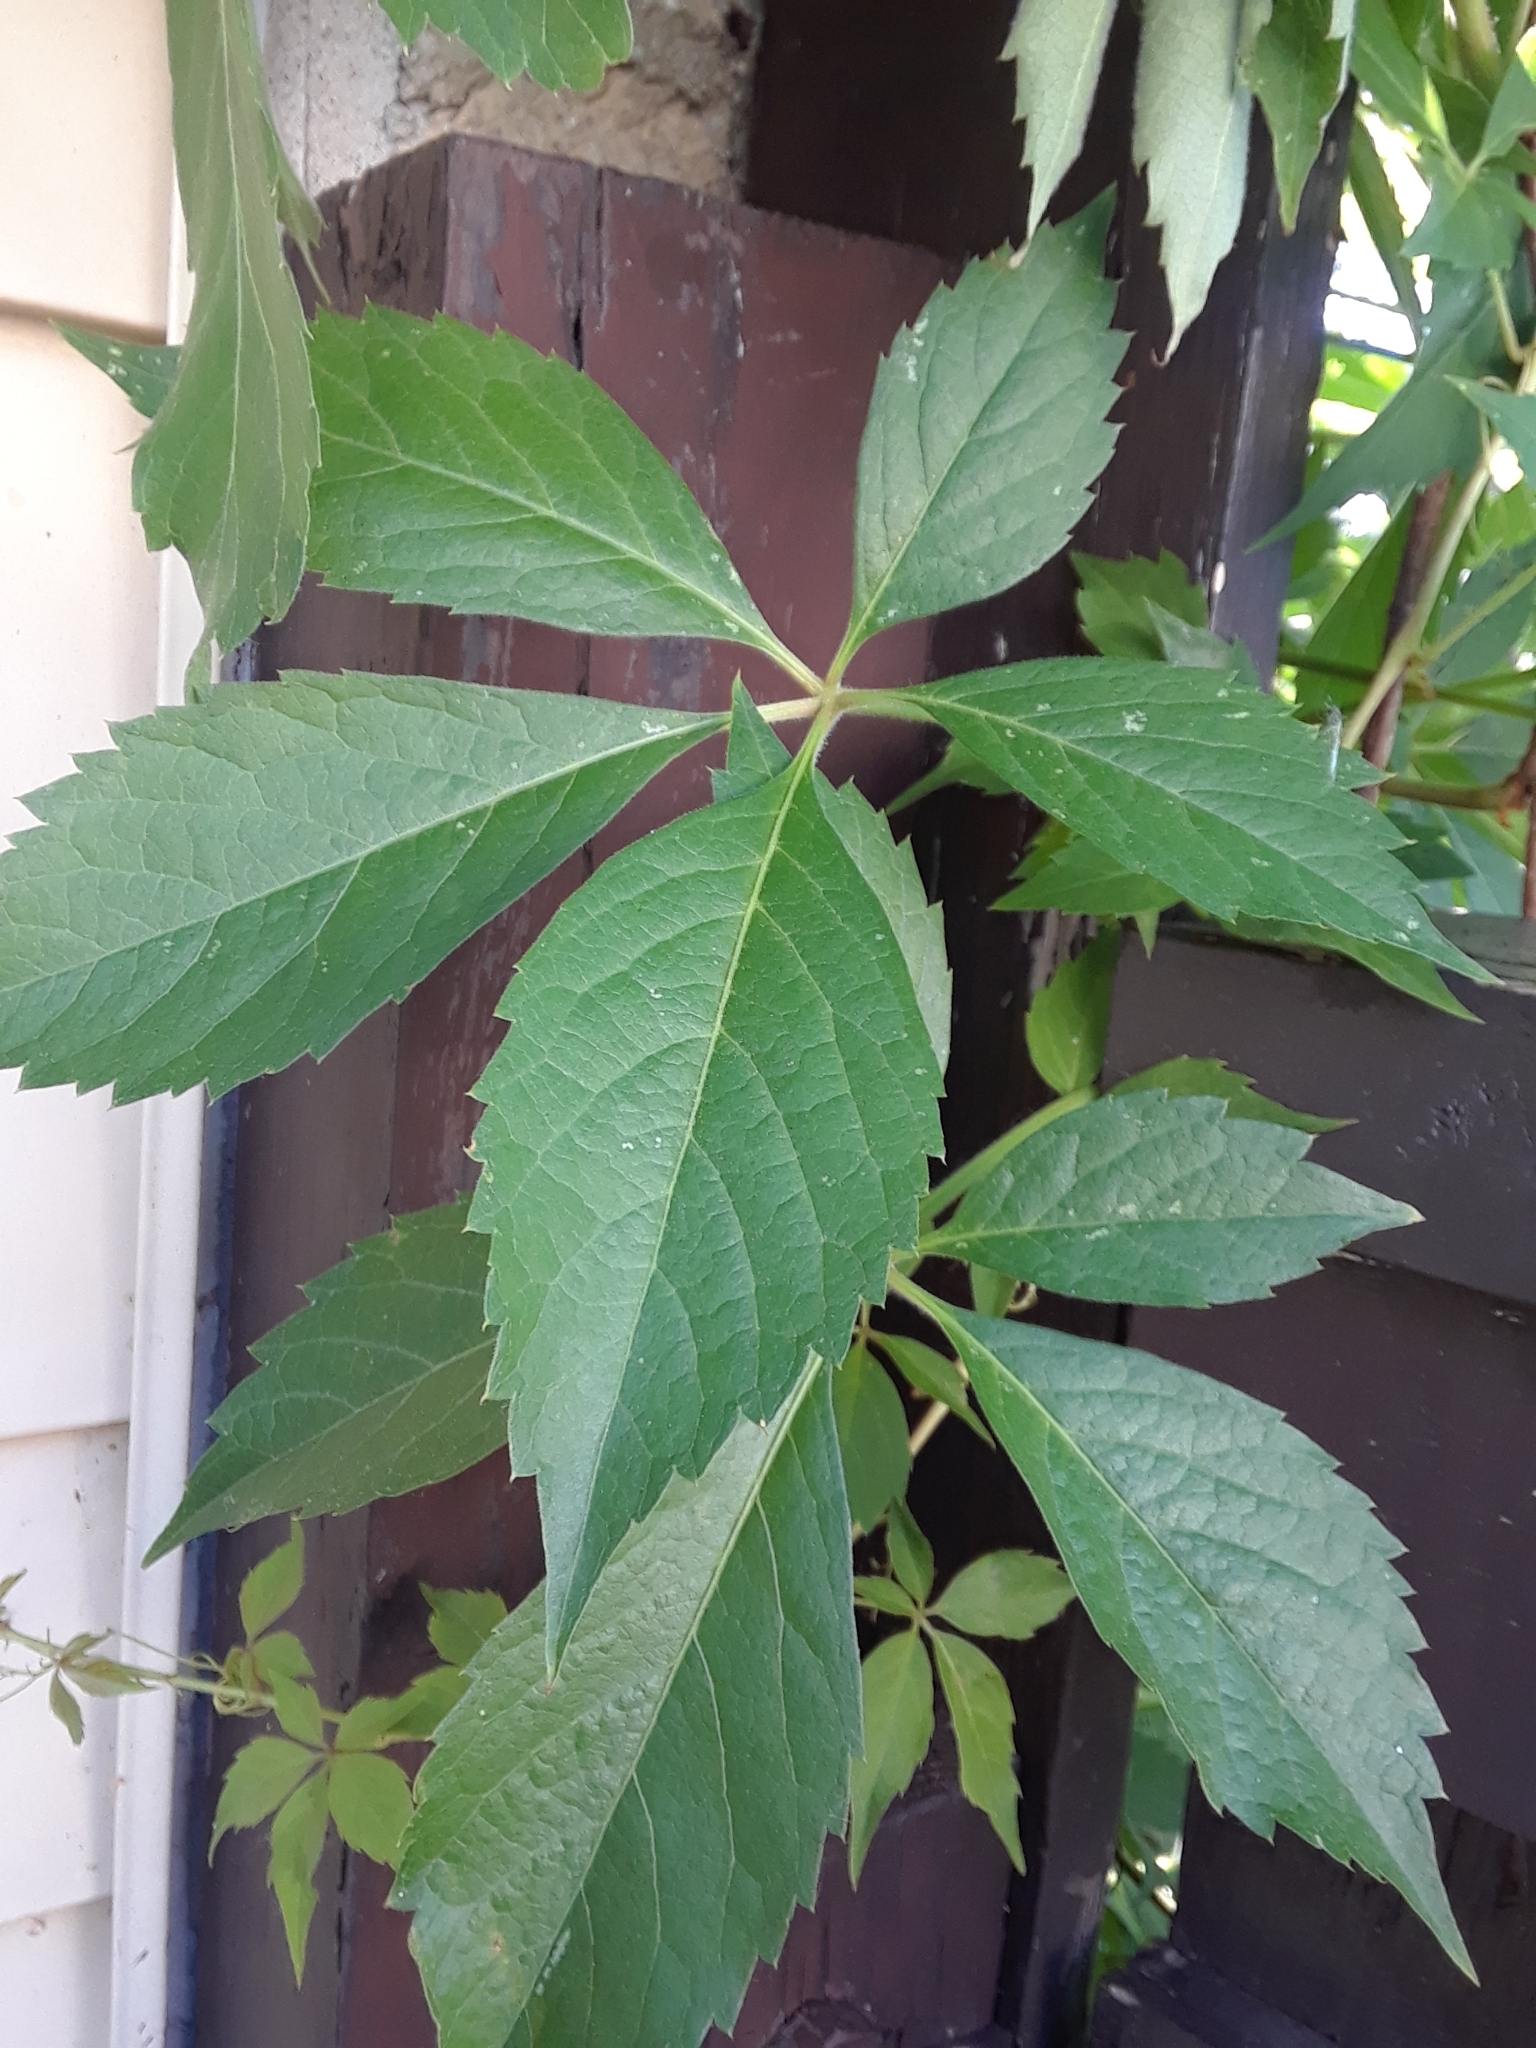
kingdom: Plantae
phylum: Tracheophyta
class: Magnoliopsida
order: Vitales
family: Vitaceae
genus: Parthenocissus
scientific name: Parthenocissus quinquefolia
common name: Virginia-creeper
